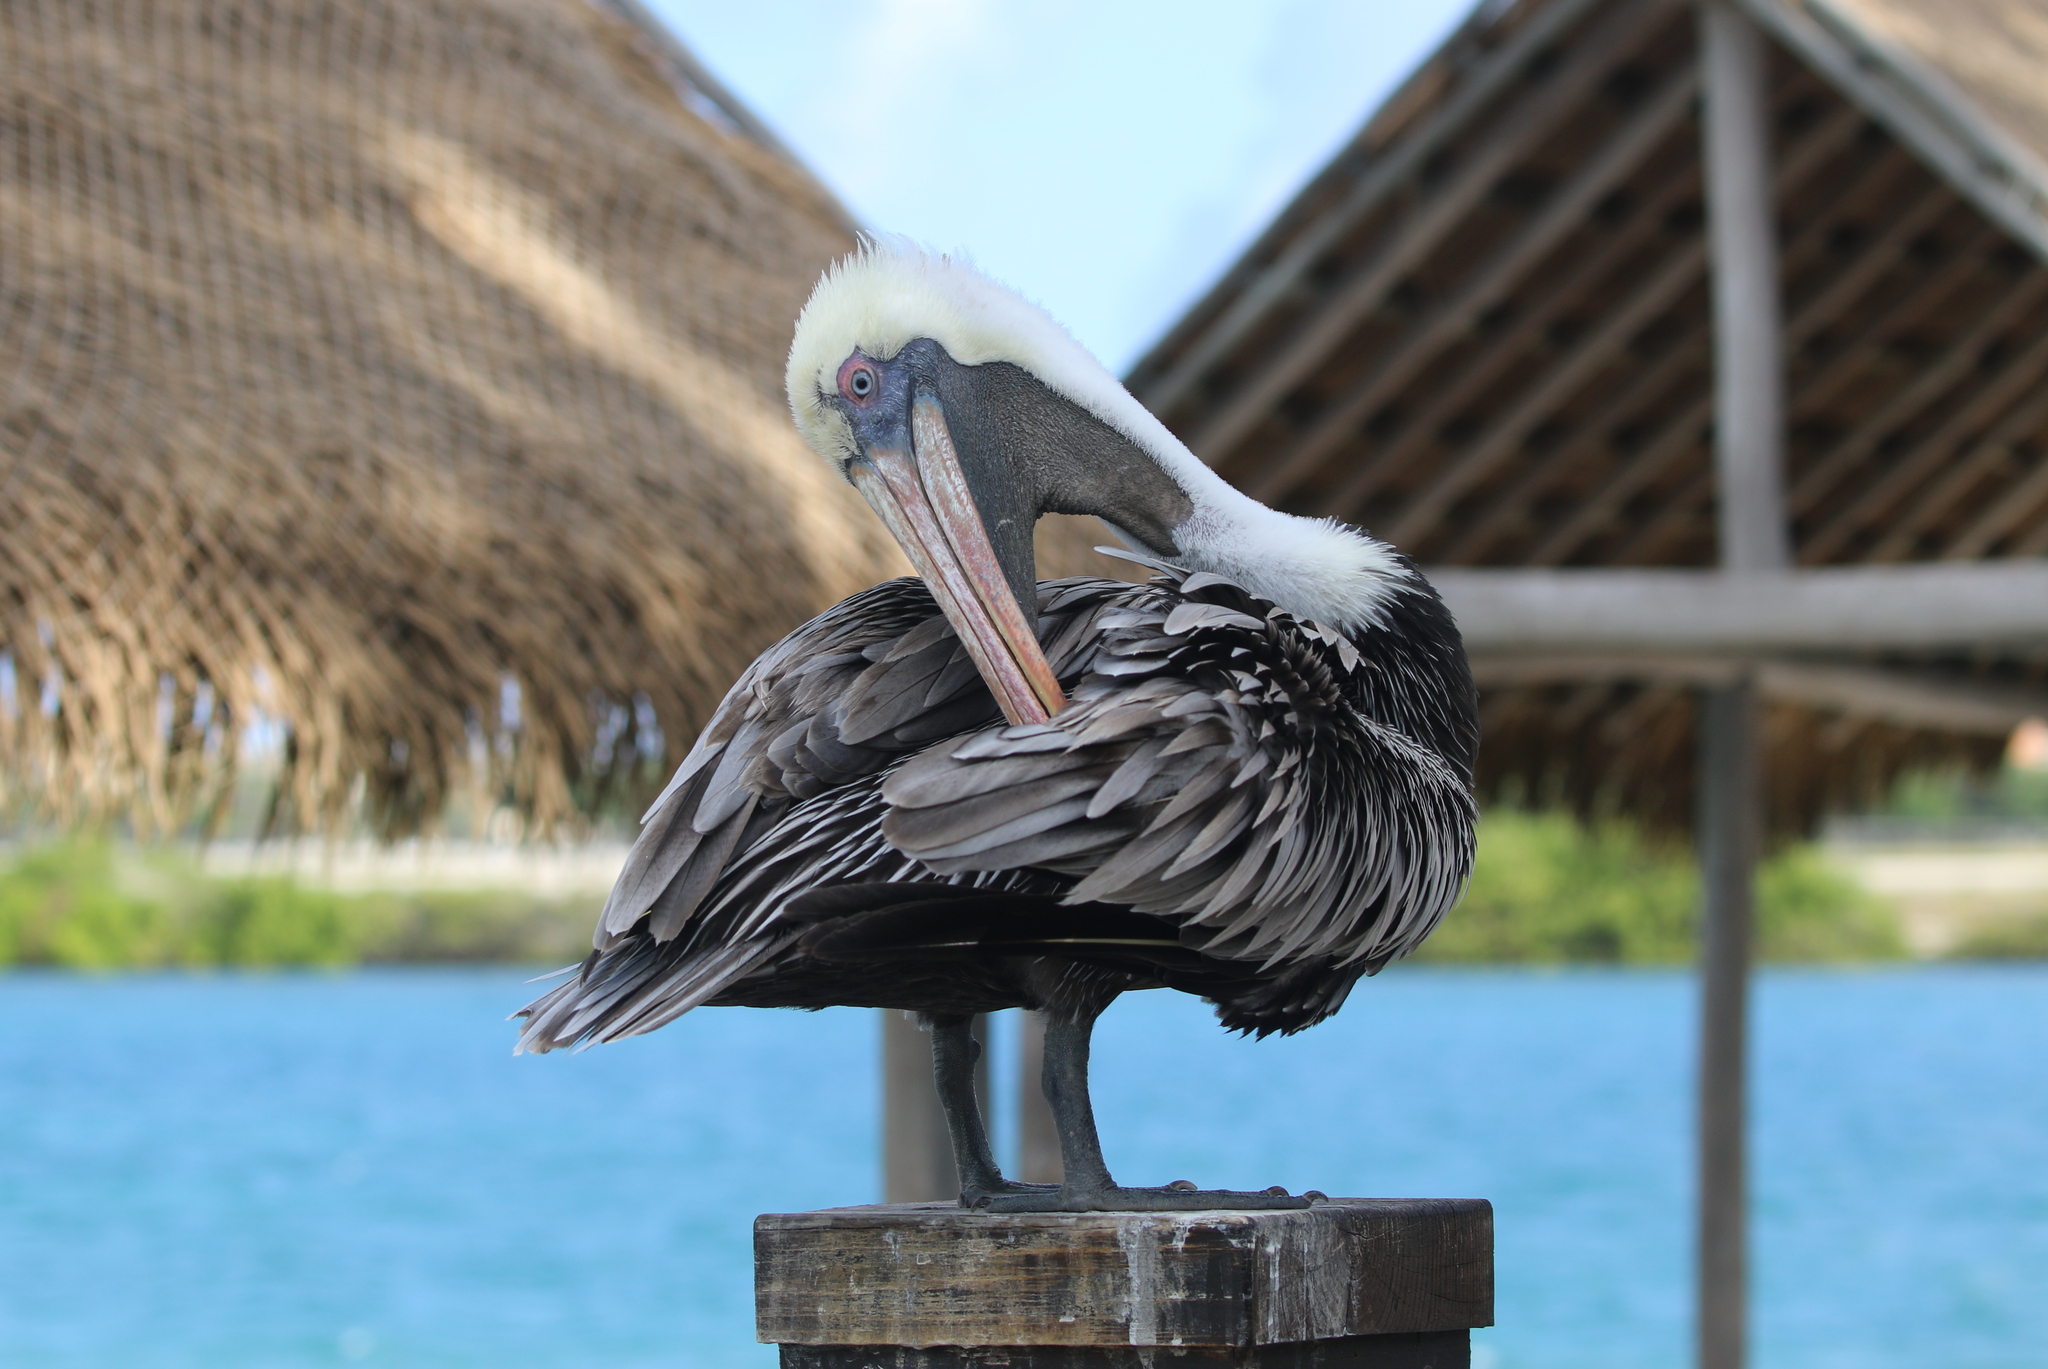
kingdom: Animalia
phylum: Chordata
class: Aves
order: Pelecaniformes
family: Pelecanidae
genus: Pelecanus
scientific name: Pelecanus occidentalis
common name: Brown pelican
